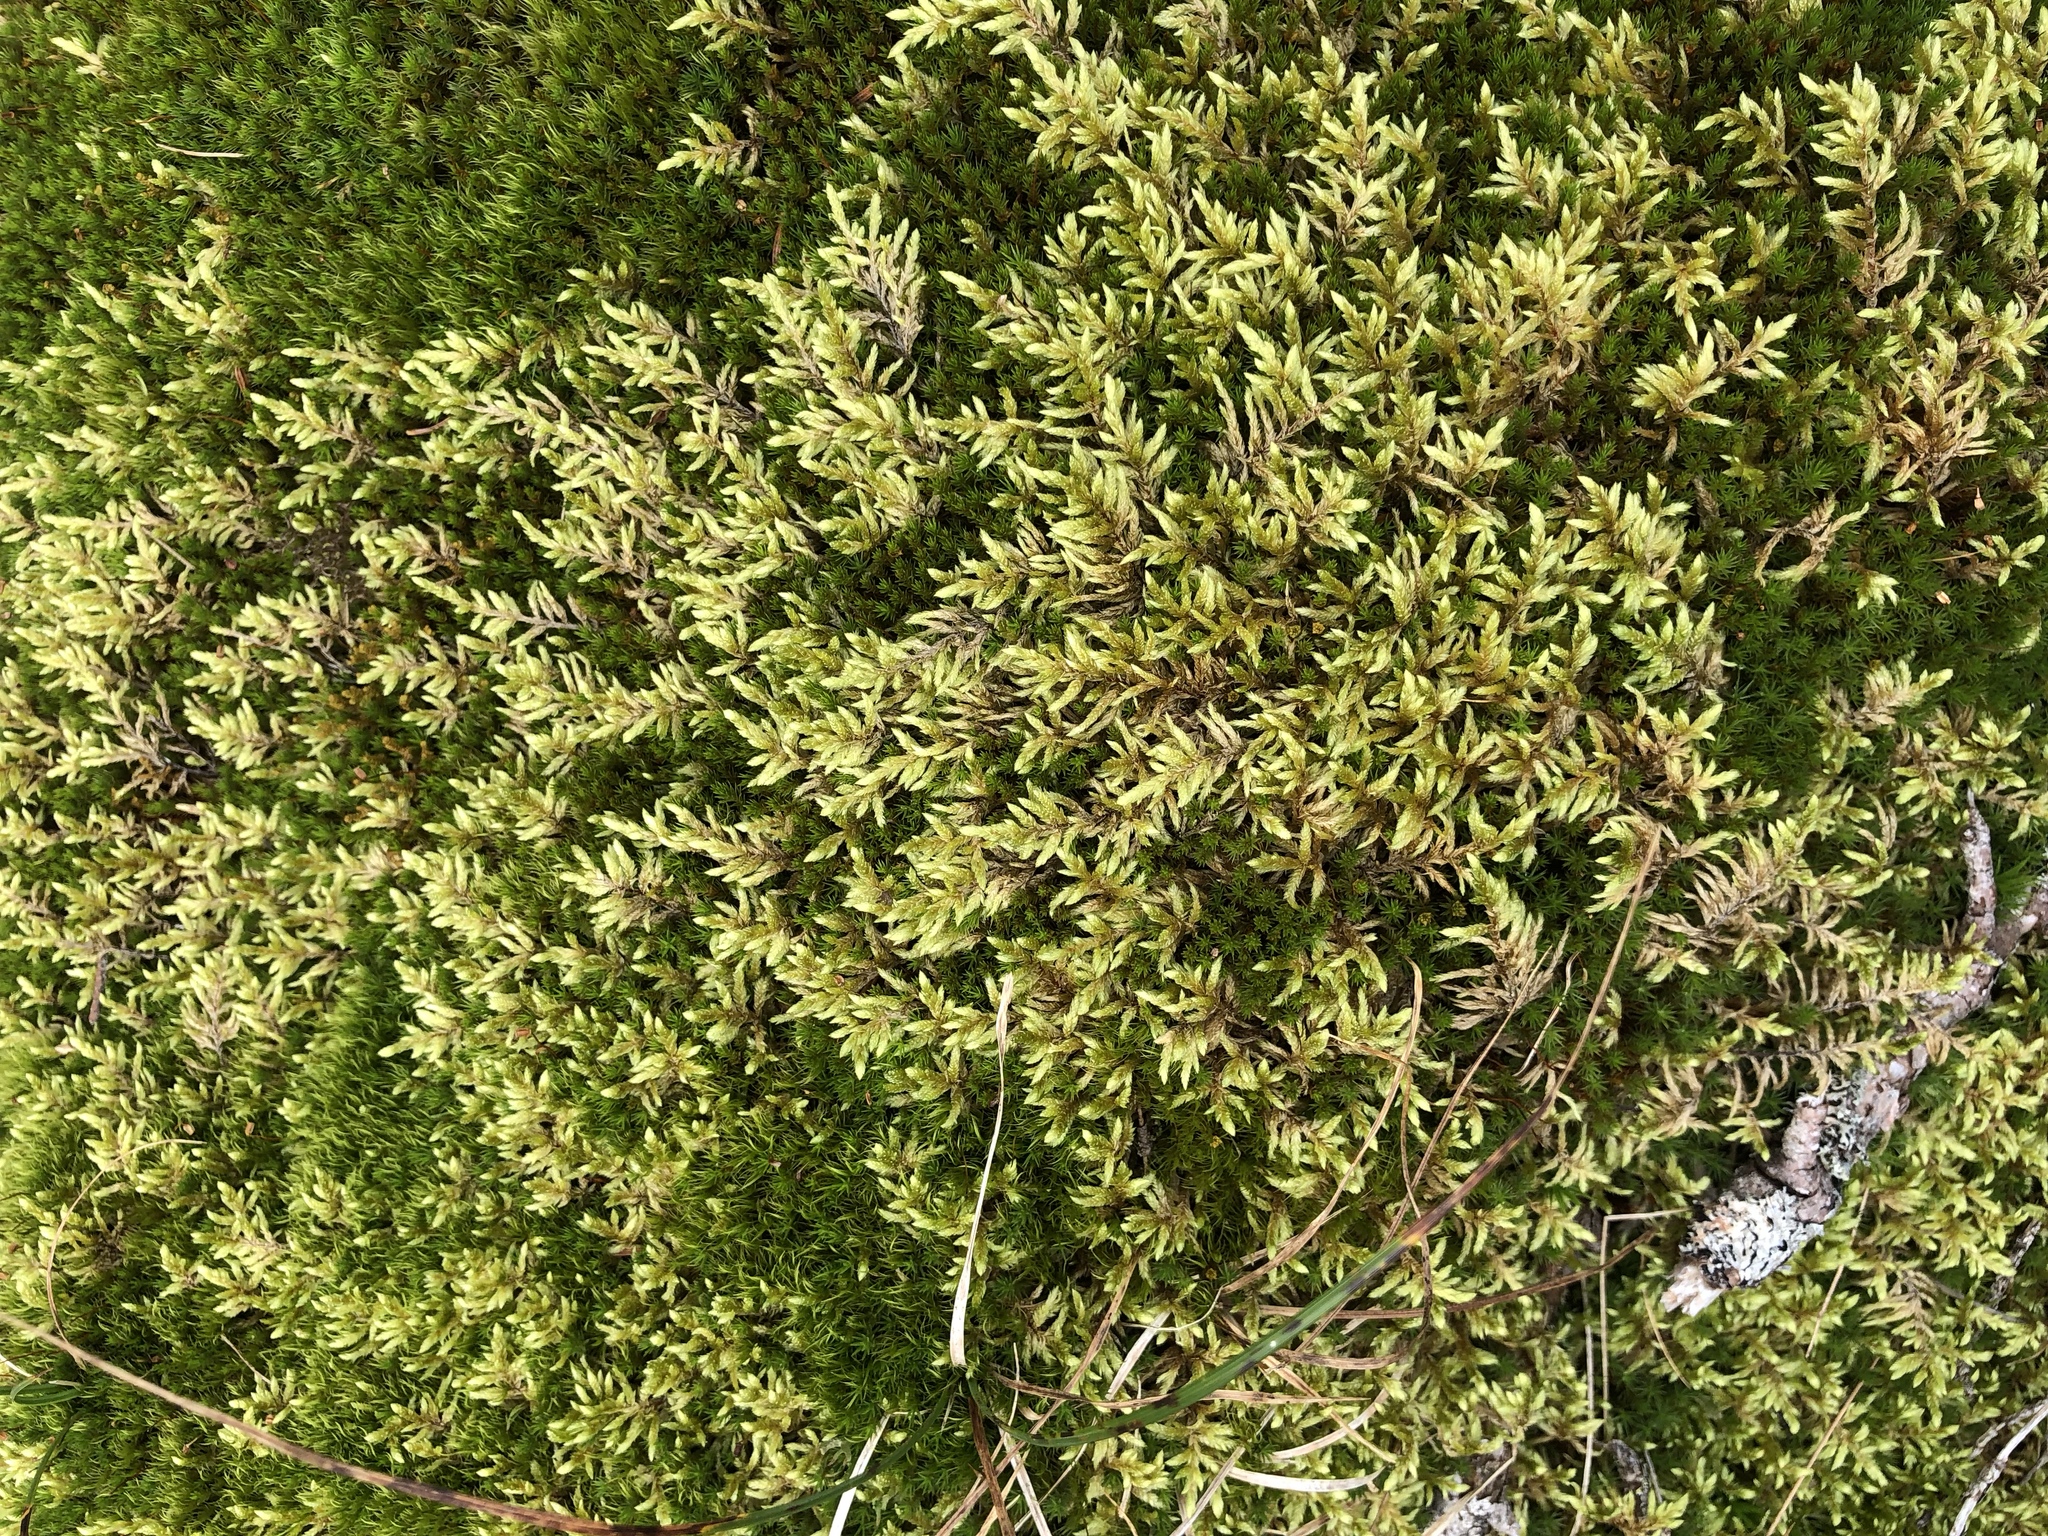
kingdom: Plantae
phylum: Bryophyta
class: Bryopsida
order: Hypnales
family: Hylocomiaceae
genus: Pleurozium
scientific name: Pleurozium schreberi
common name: Red-stemmed feather moss
